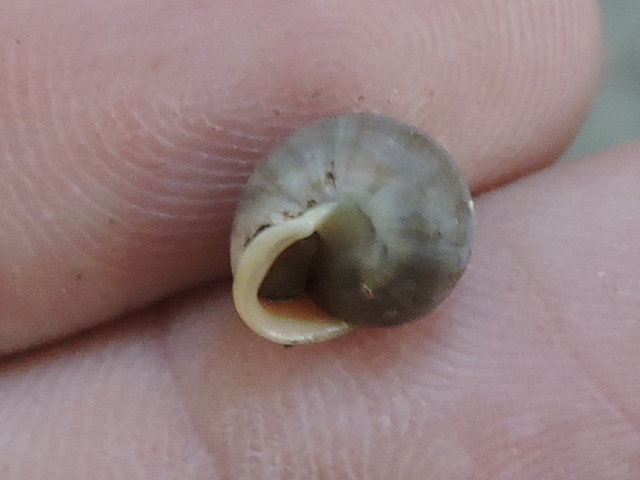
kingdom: Animalia
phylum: Mollusca
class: Gastropoda
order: Cycloneritida
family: Helicinidae
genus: Helicina
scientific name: Helicina orbiculata
